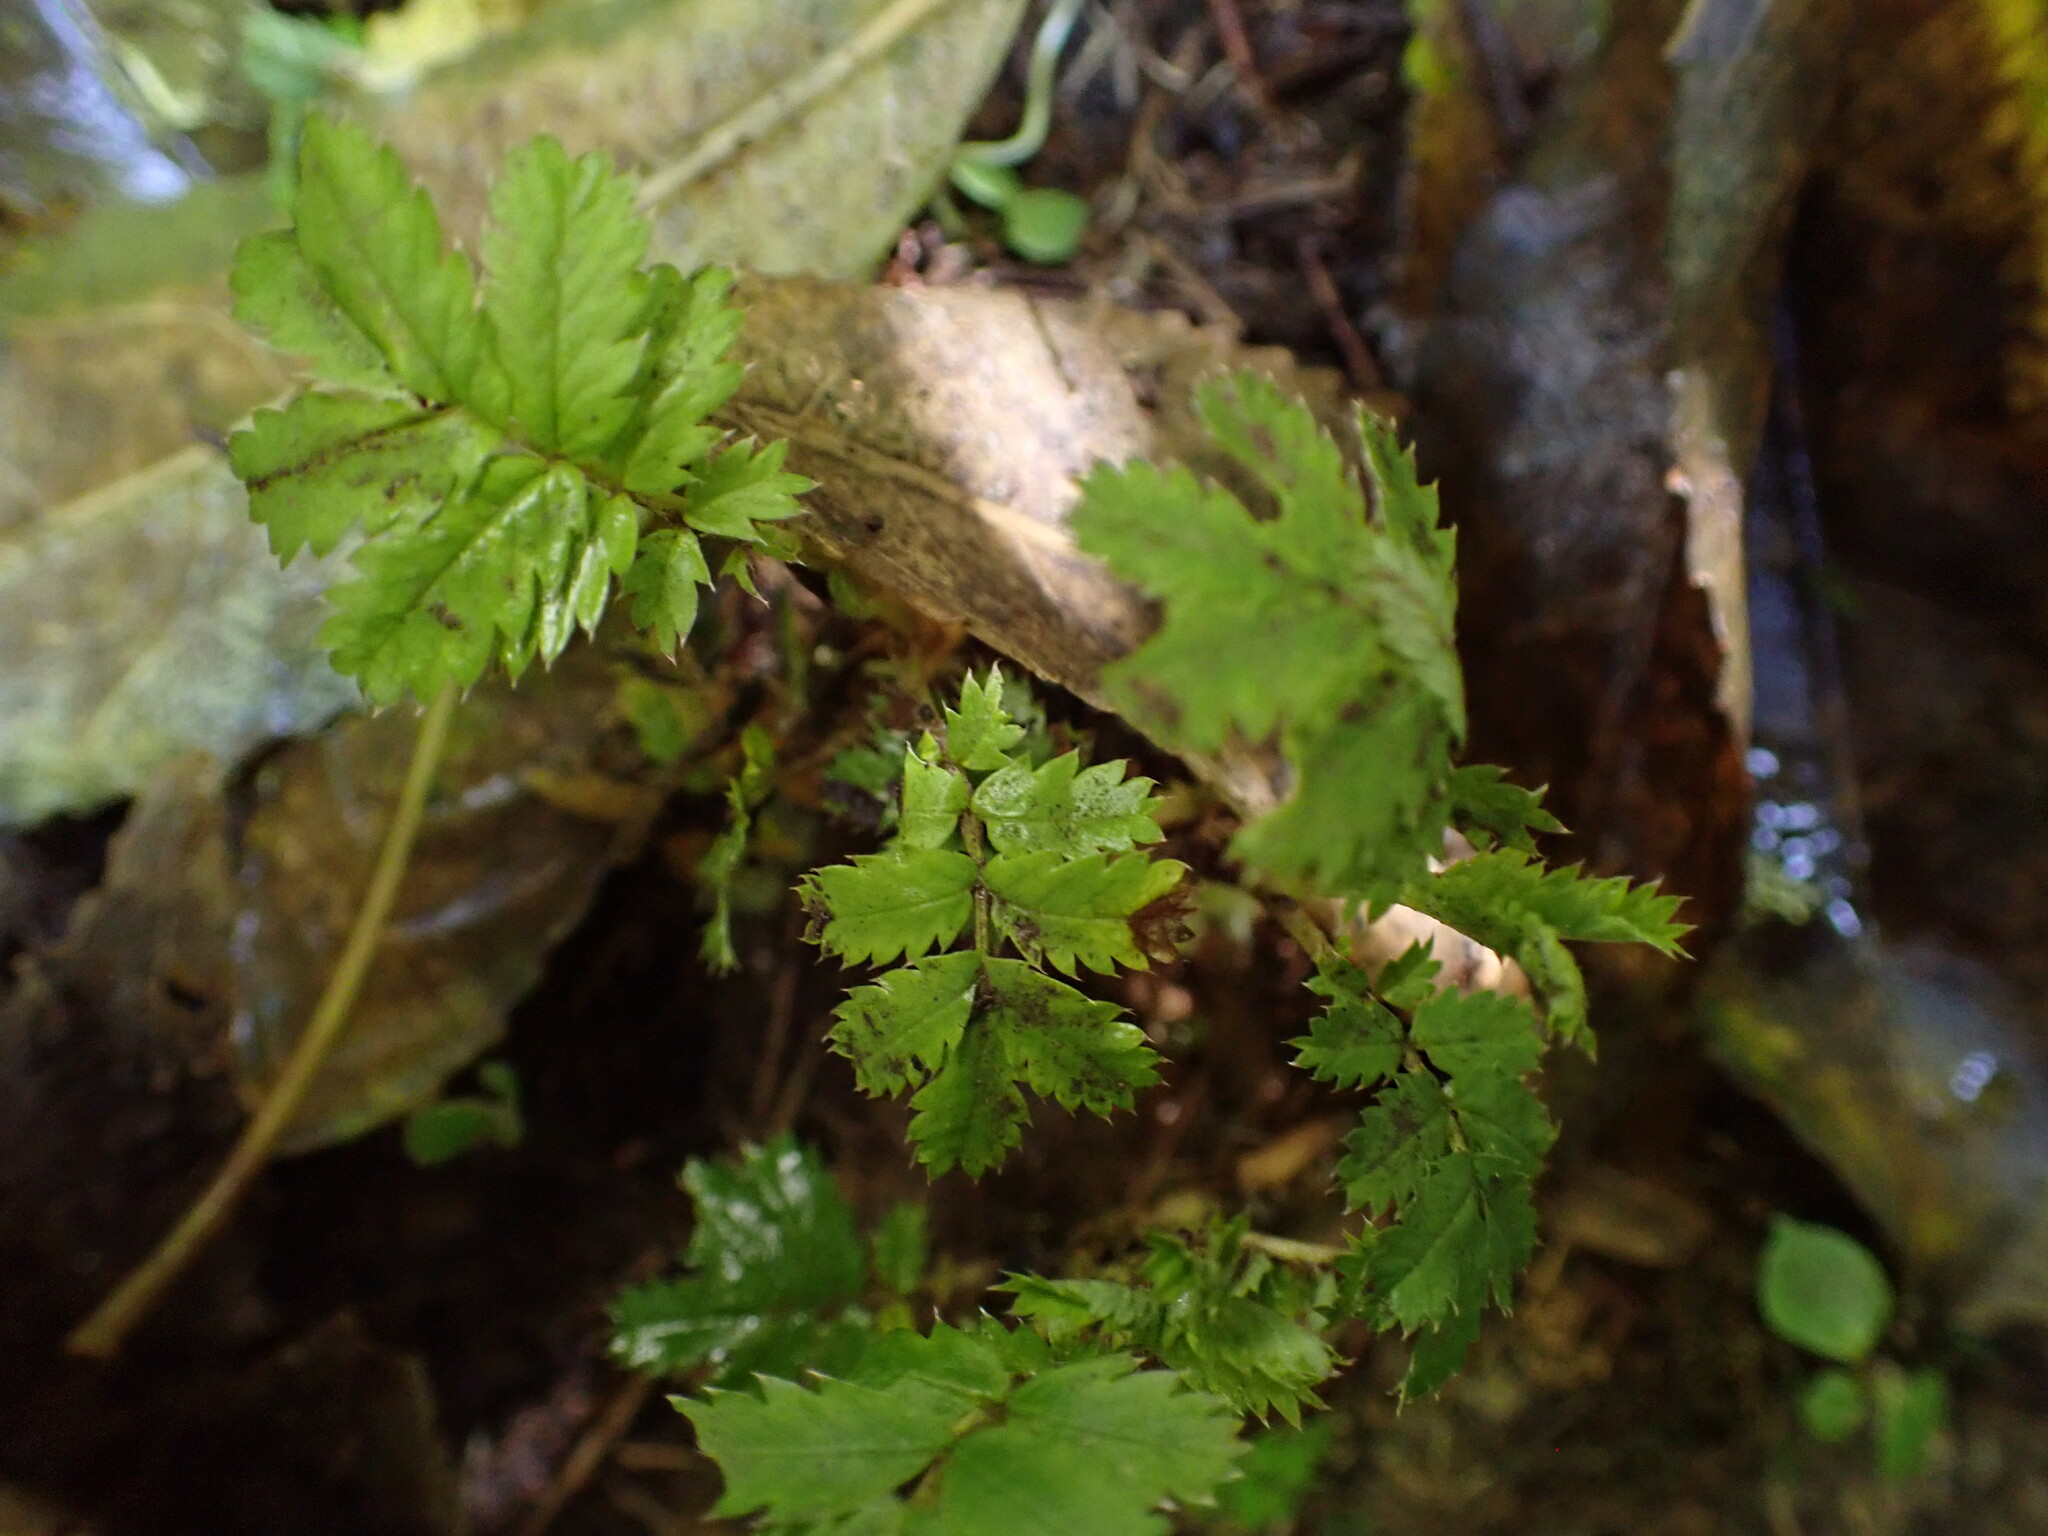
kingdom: Plantae
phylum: Tracheophyta
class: Magnoliopsida
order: Rosales
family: Rosaceae
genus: Acaena
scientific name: Acaena anserinifolia
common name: Bronze pirri-pirri-bur
